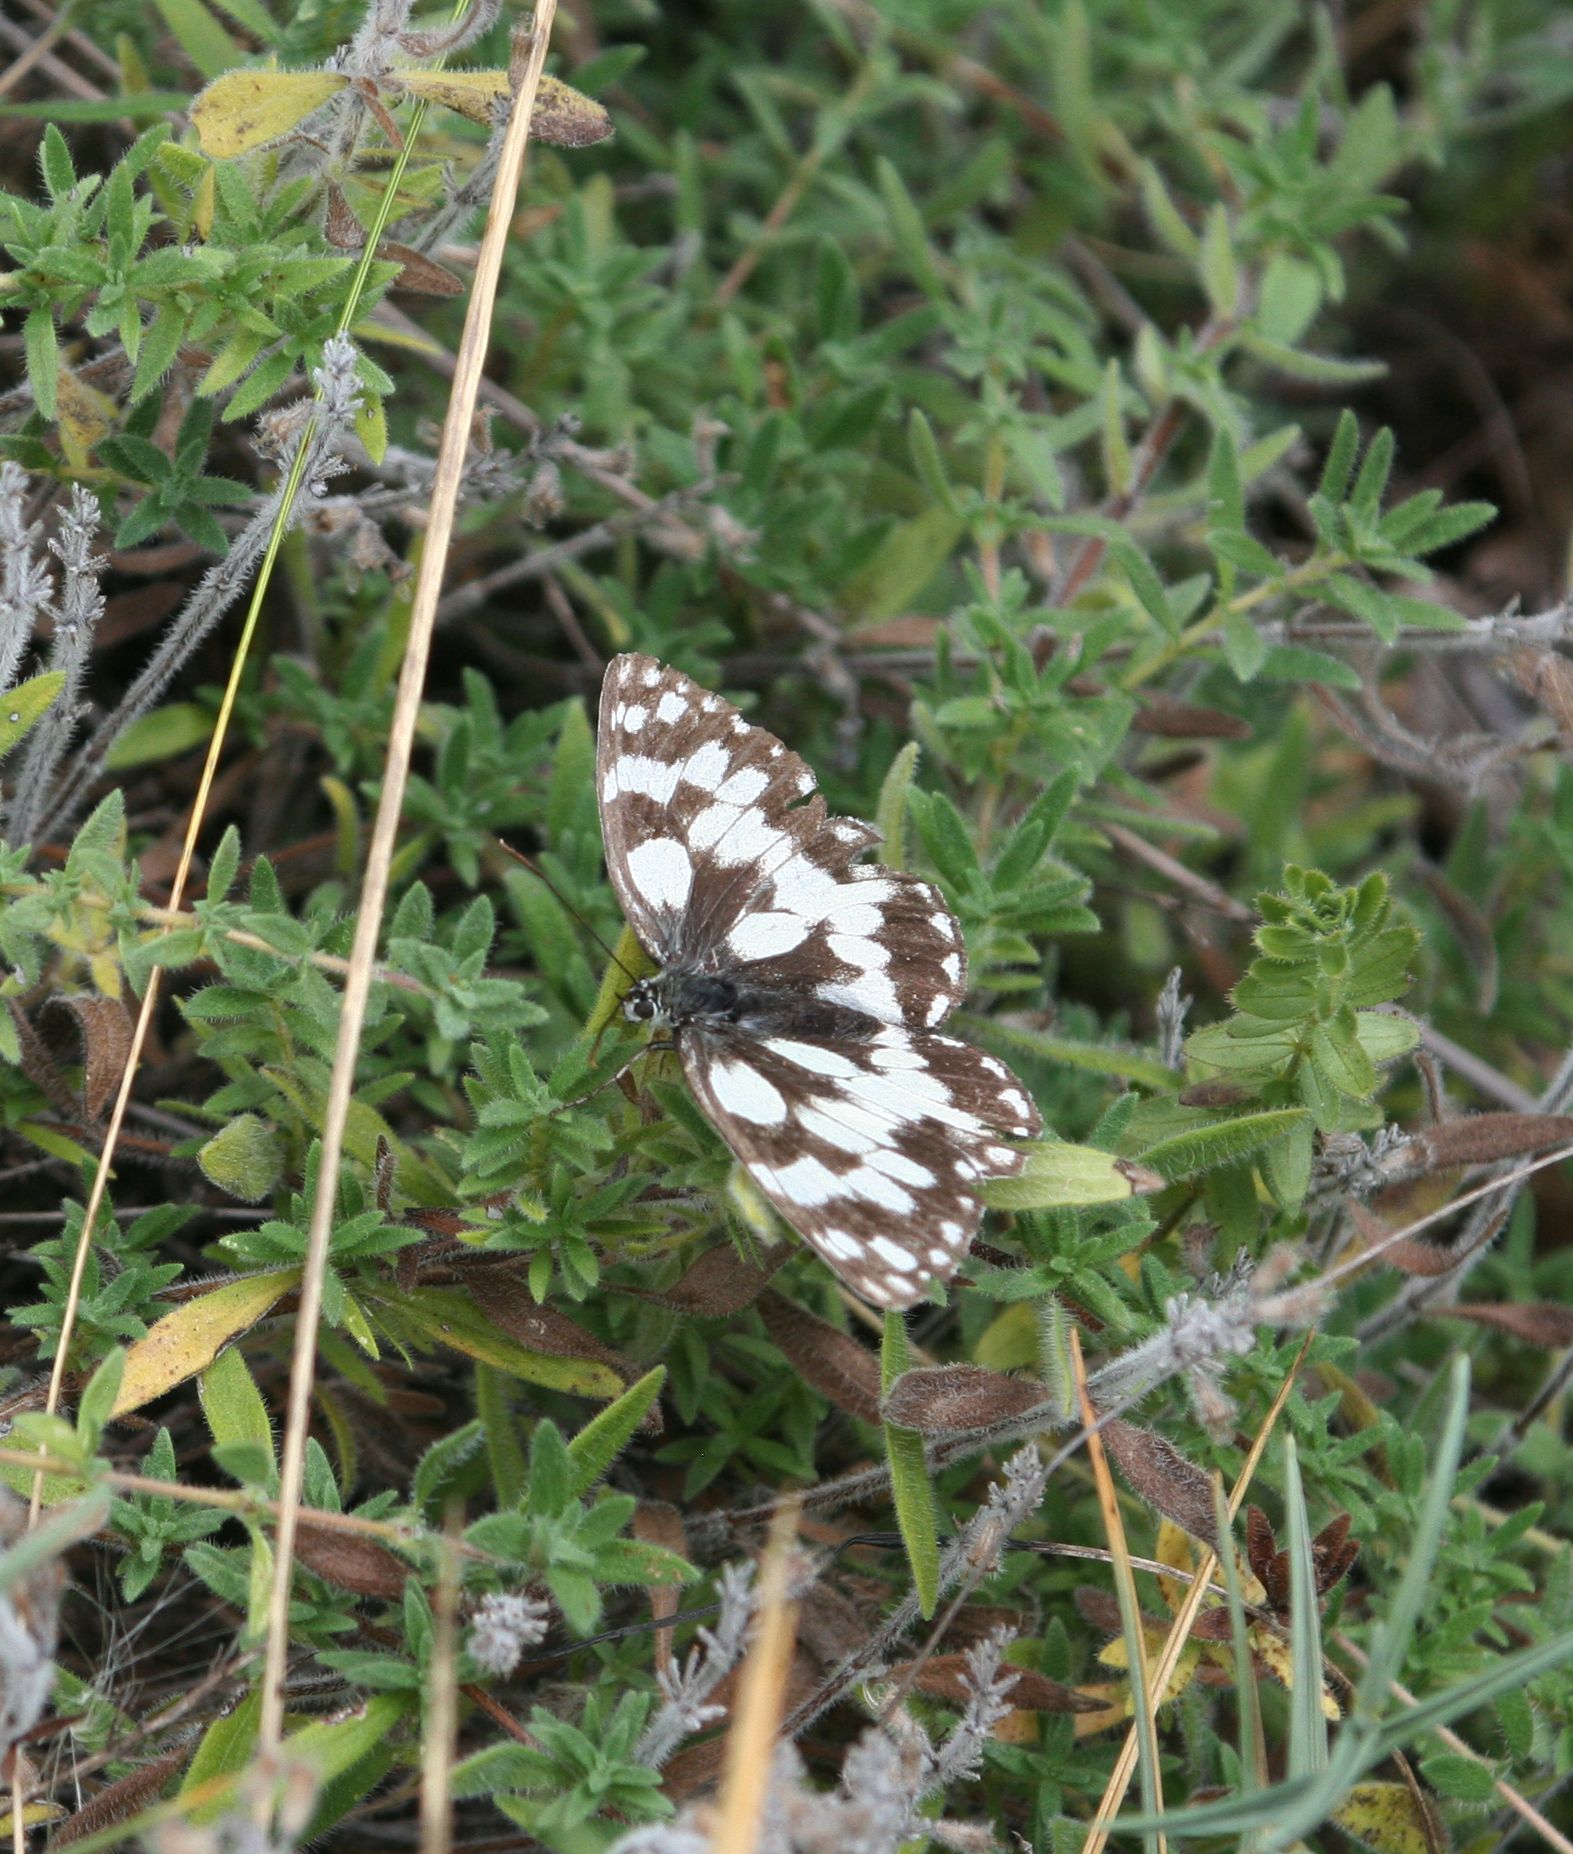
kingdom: Animalia
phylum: Arthropoda
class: Insecta
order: Lepidoptera
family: Nymphalidae
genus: Melanargia
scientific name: Melanargia galathea
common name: Marbled white
